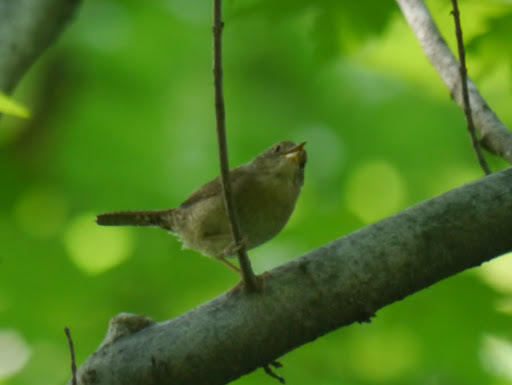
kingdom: Animalia
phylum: Chordata
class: Aves
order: Passeriformes
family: Troglodytidae
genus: Troglodytes
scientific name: Troglodytes aedon
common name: House wren
